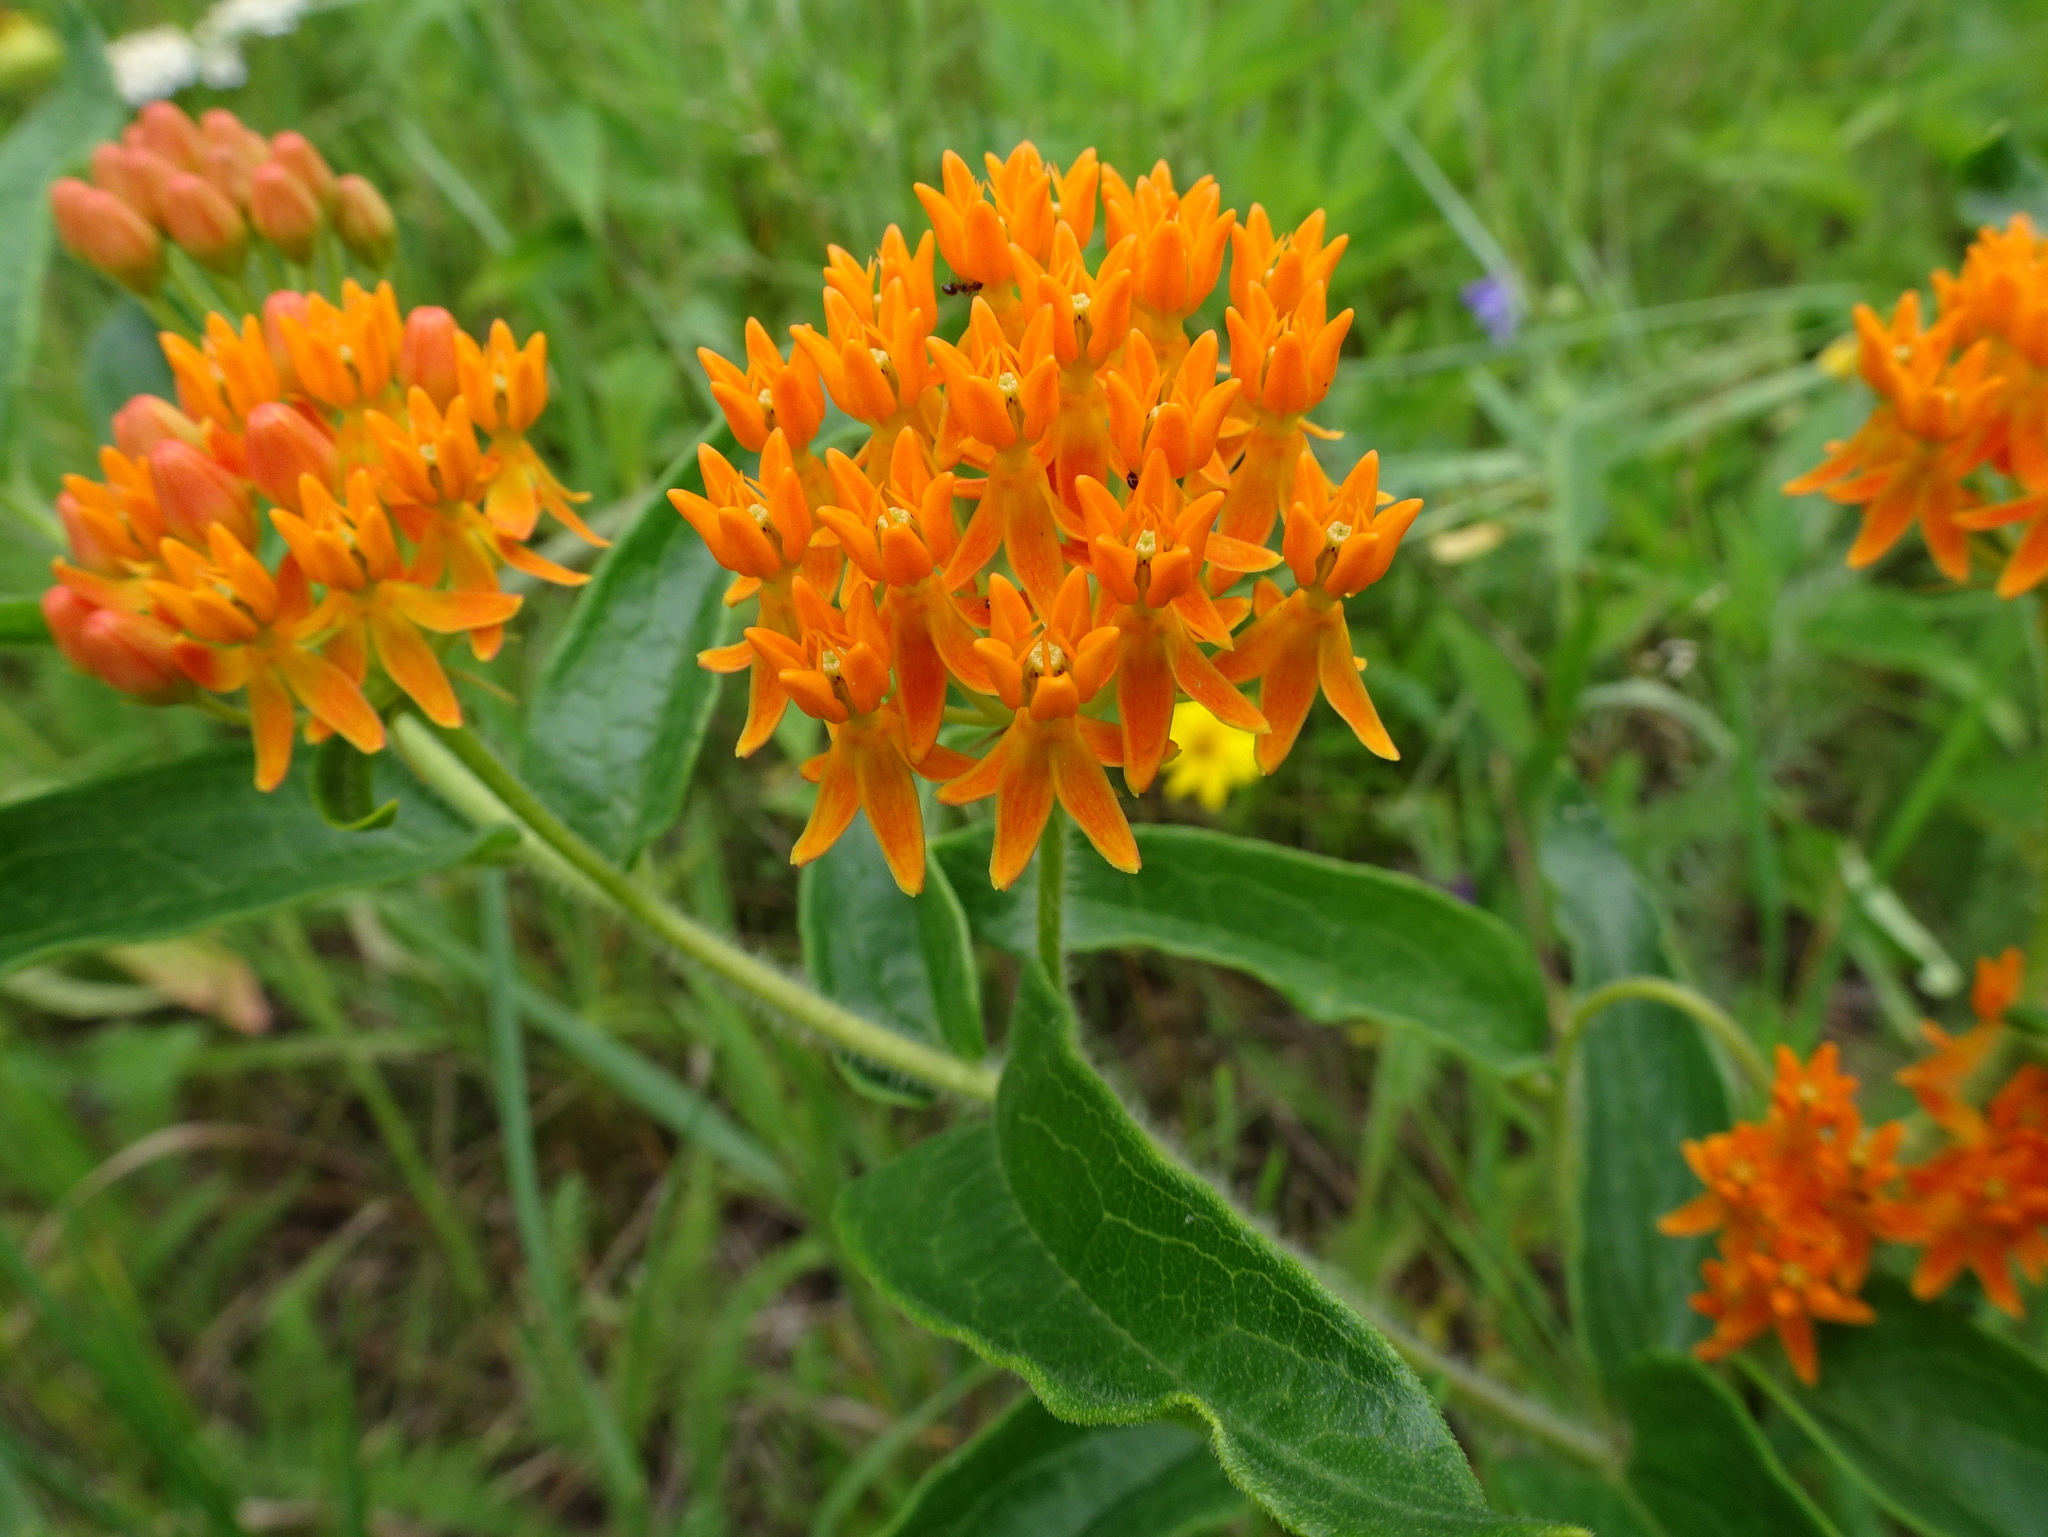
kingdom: Plantae
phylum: Tracheophyta
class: Magnoliopsida
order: Gentianales
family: Apocynaceae
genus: Asclepias
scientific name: Asclepias tuberosa
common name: Butterfly milkweed
